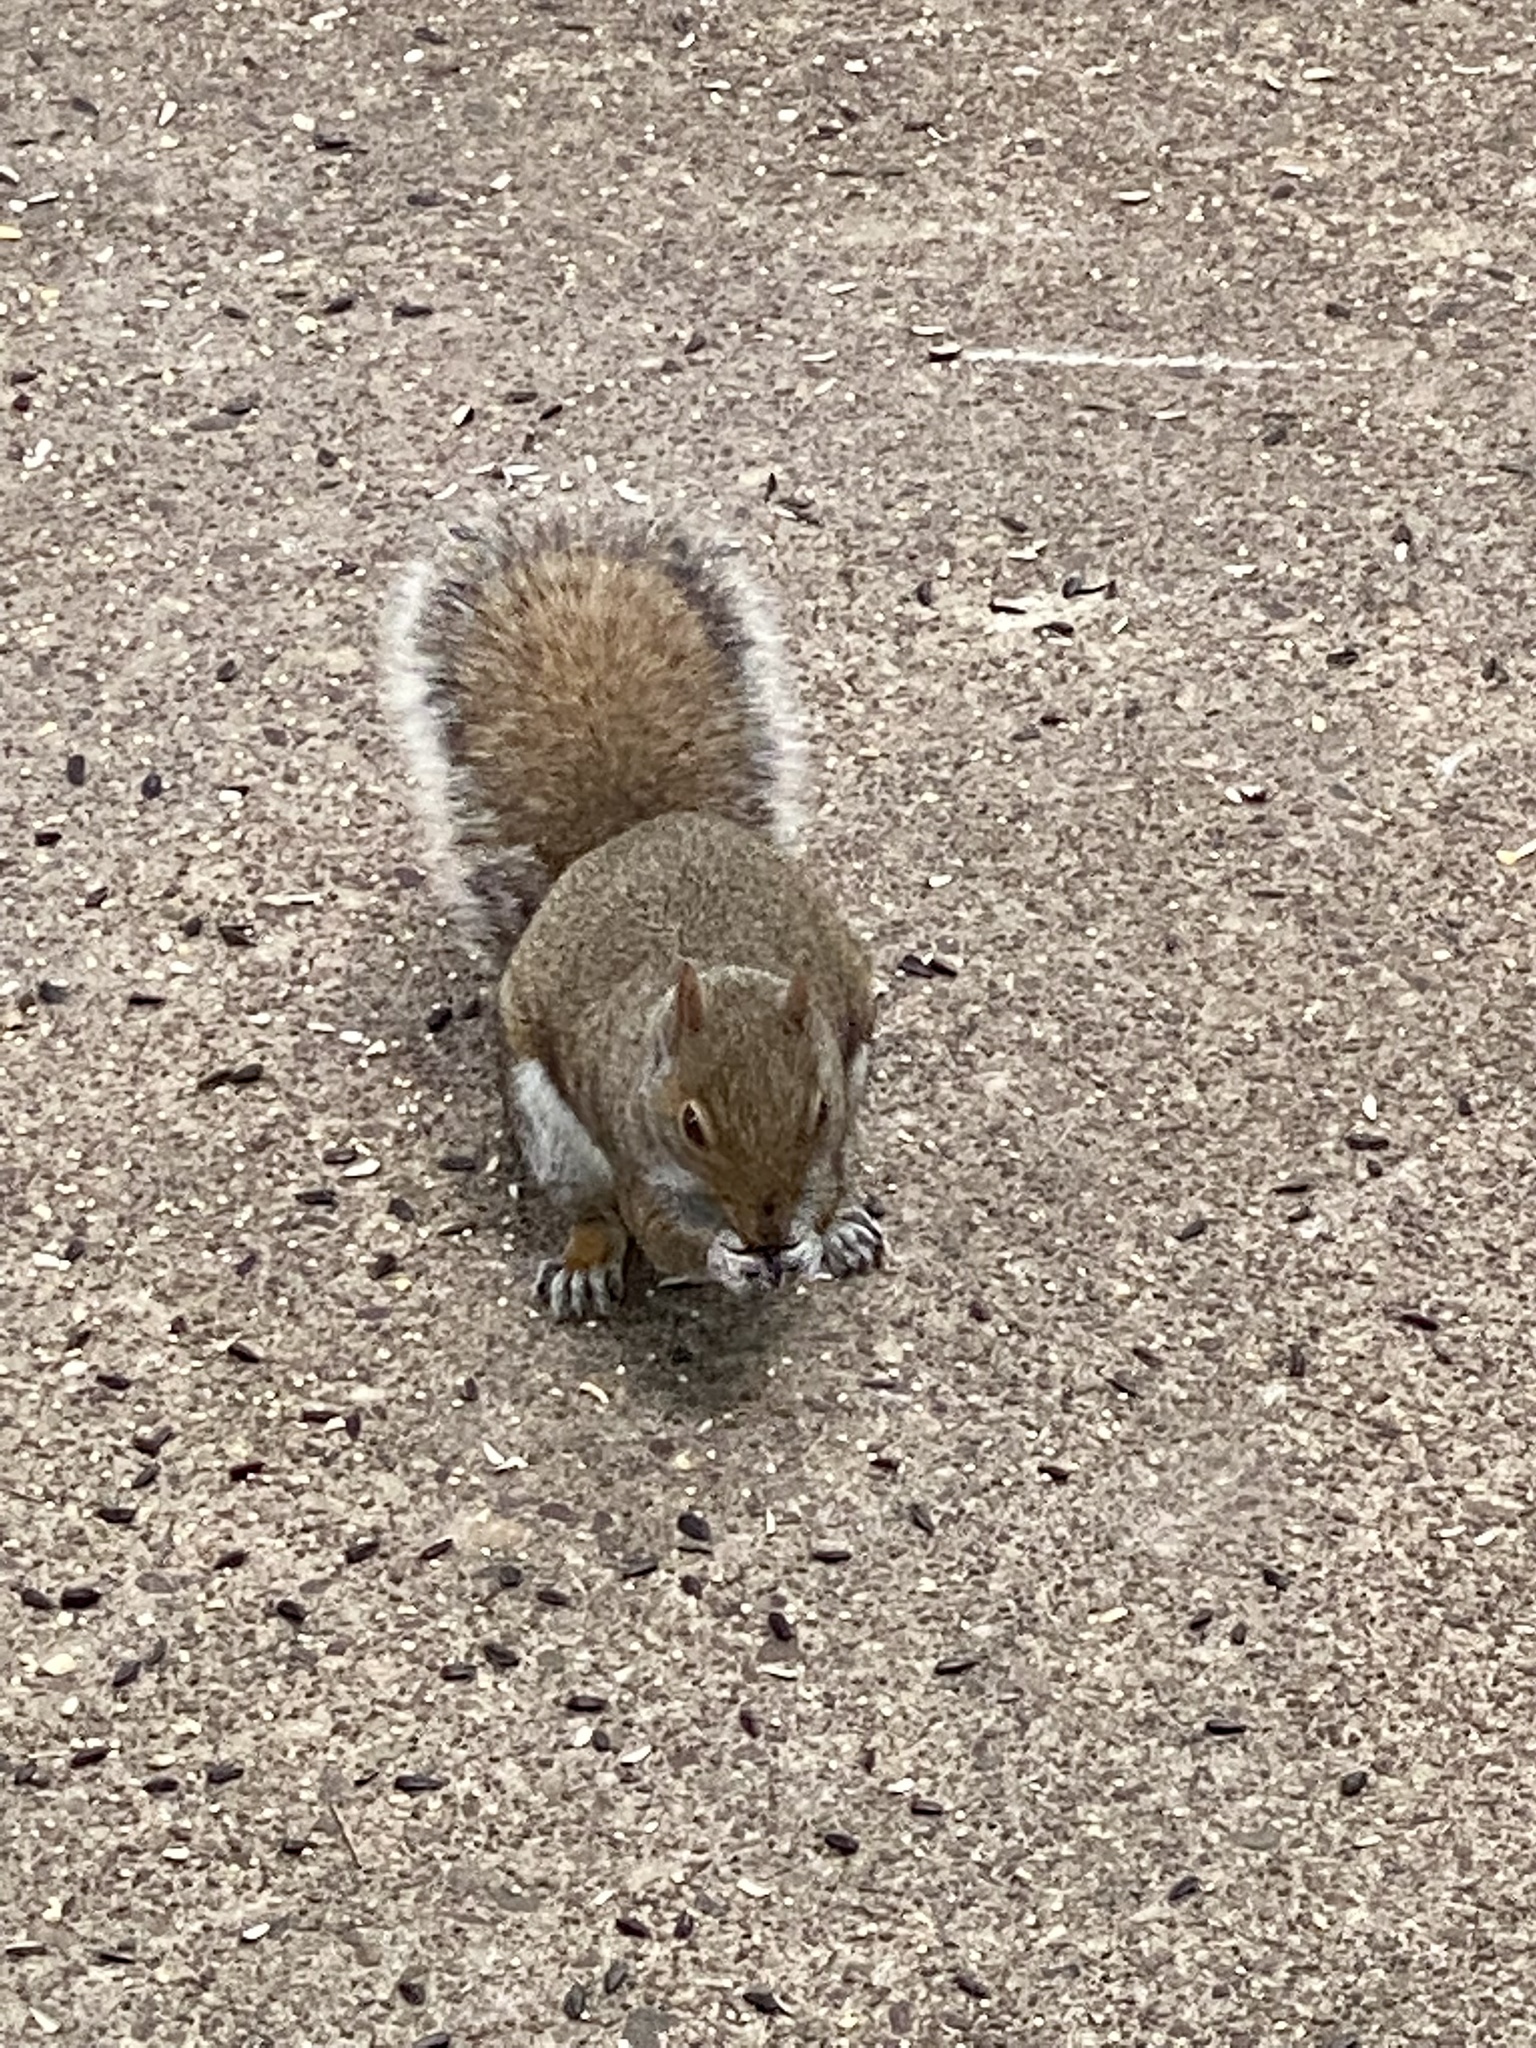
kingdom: Animalia
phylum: Chordata
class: Mammalia
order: Rodentia
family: Sciuridae
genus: Sciurus
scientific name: Sciurus carolinensis
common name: Eastern gray squirrel
